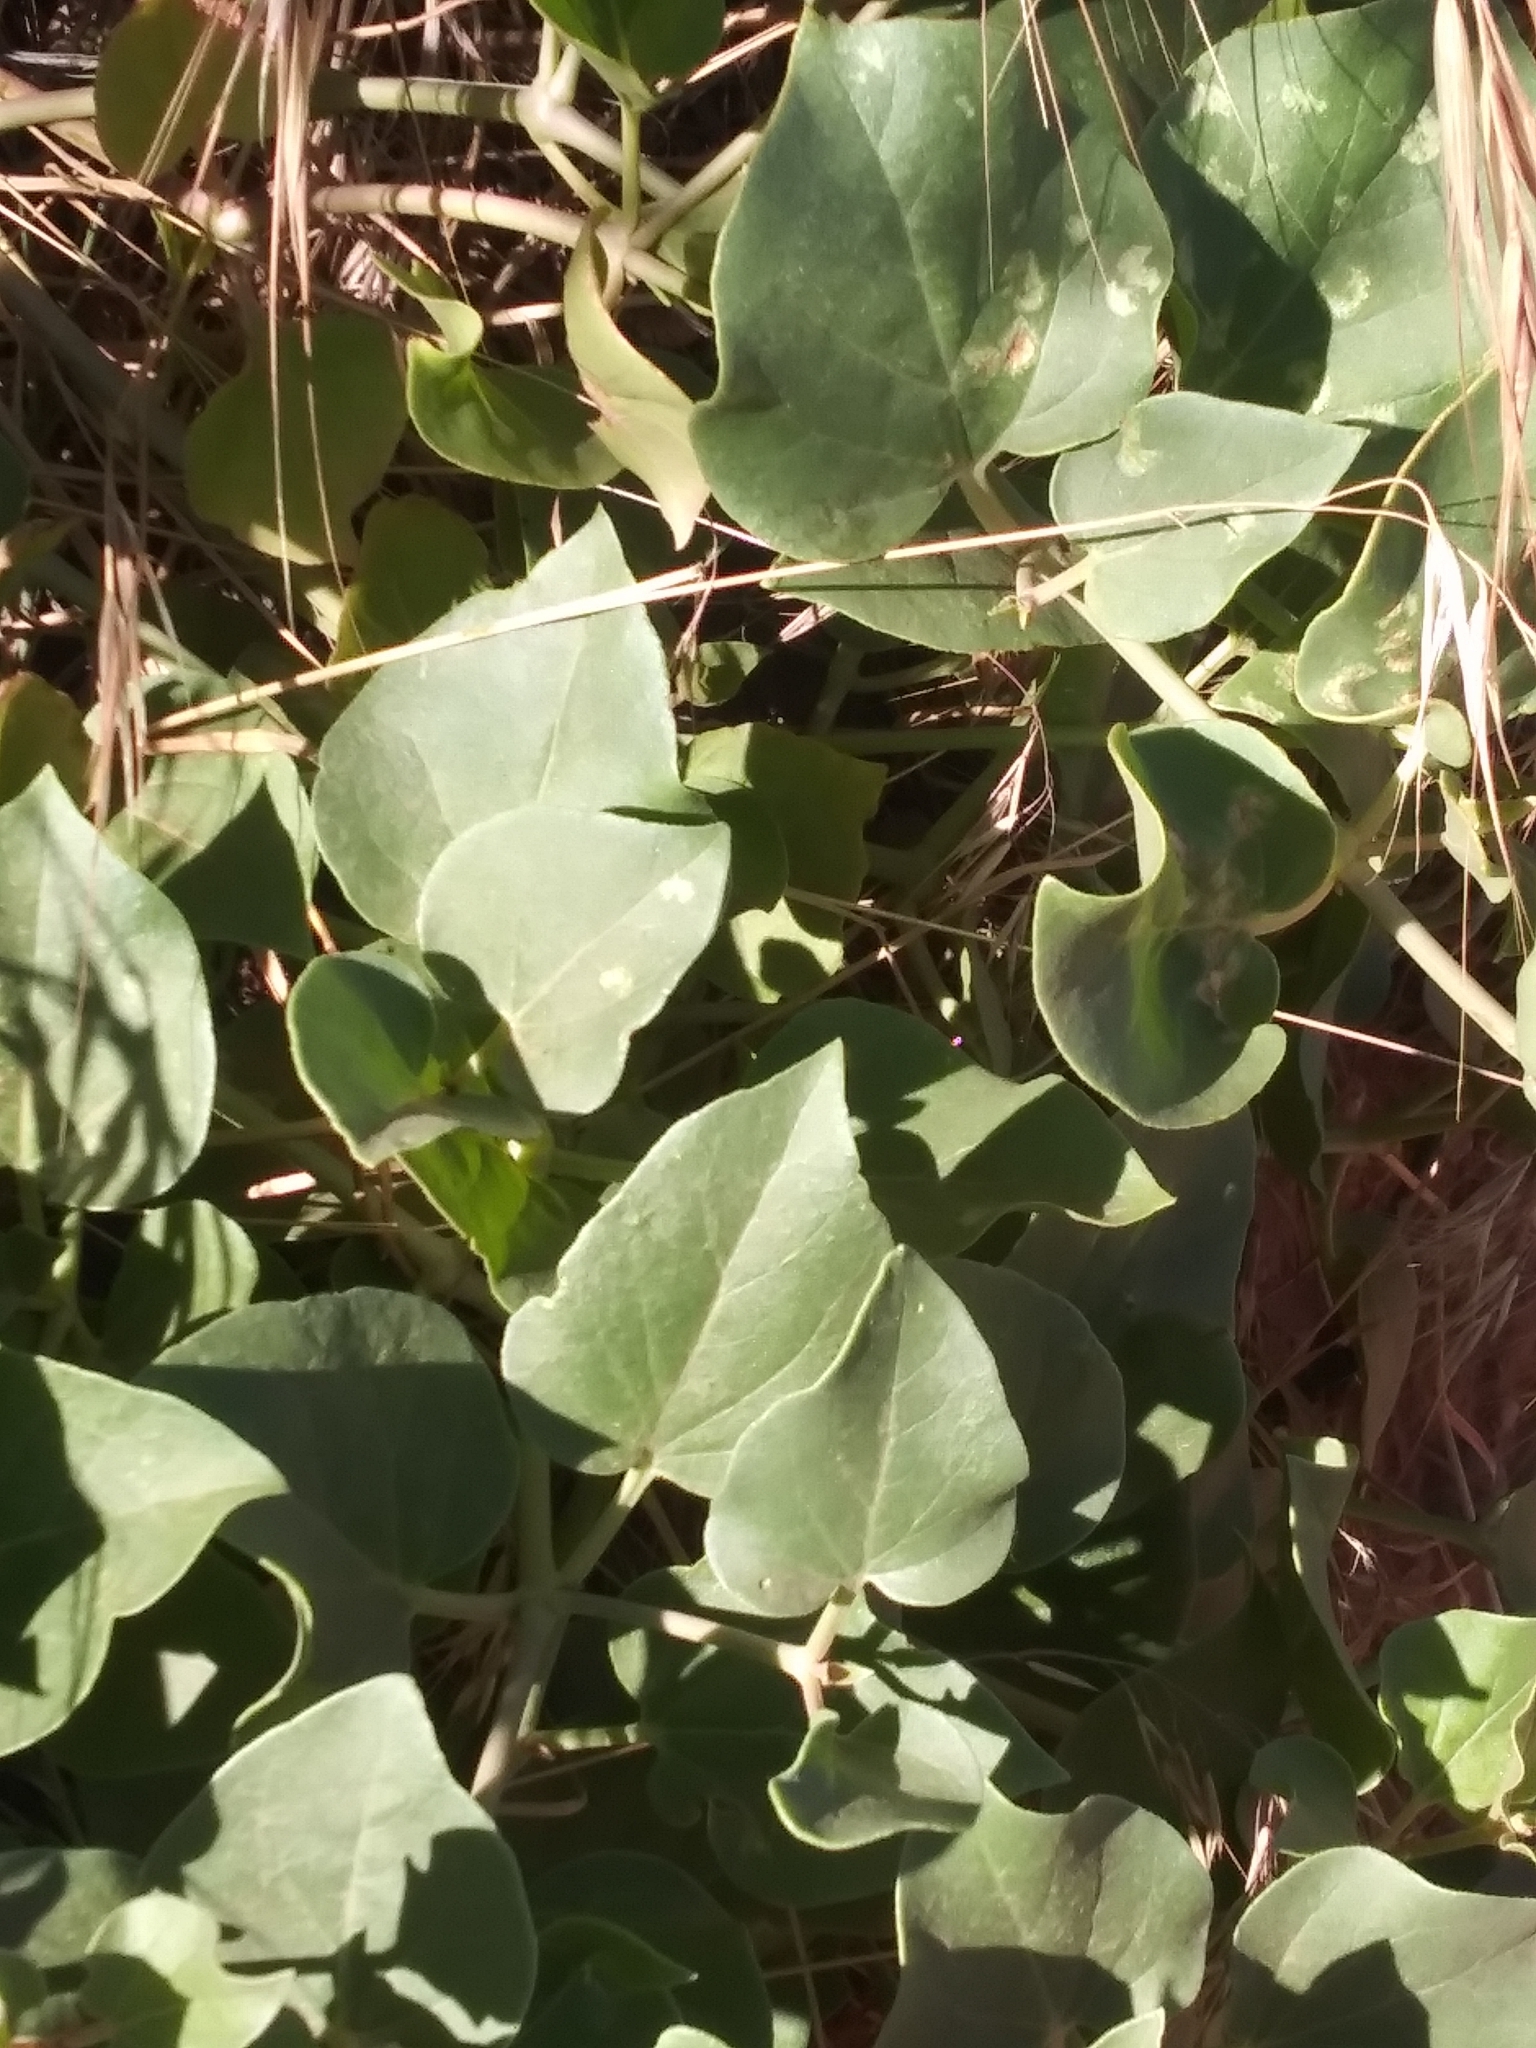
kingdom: Plantae
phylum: Tracheophyta
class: Magnoliopsida
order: Caryophyllales
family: Nyctaginaceae
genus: Mirabilis
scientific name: Mirabilis multiflora
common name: Froebel's four-o'clock
